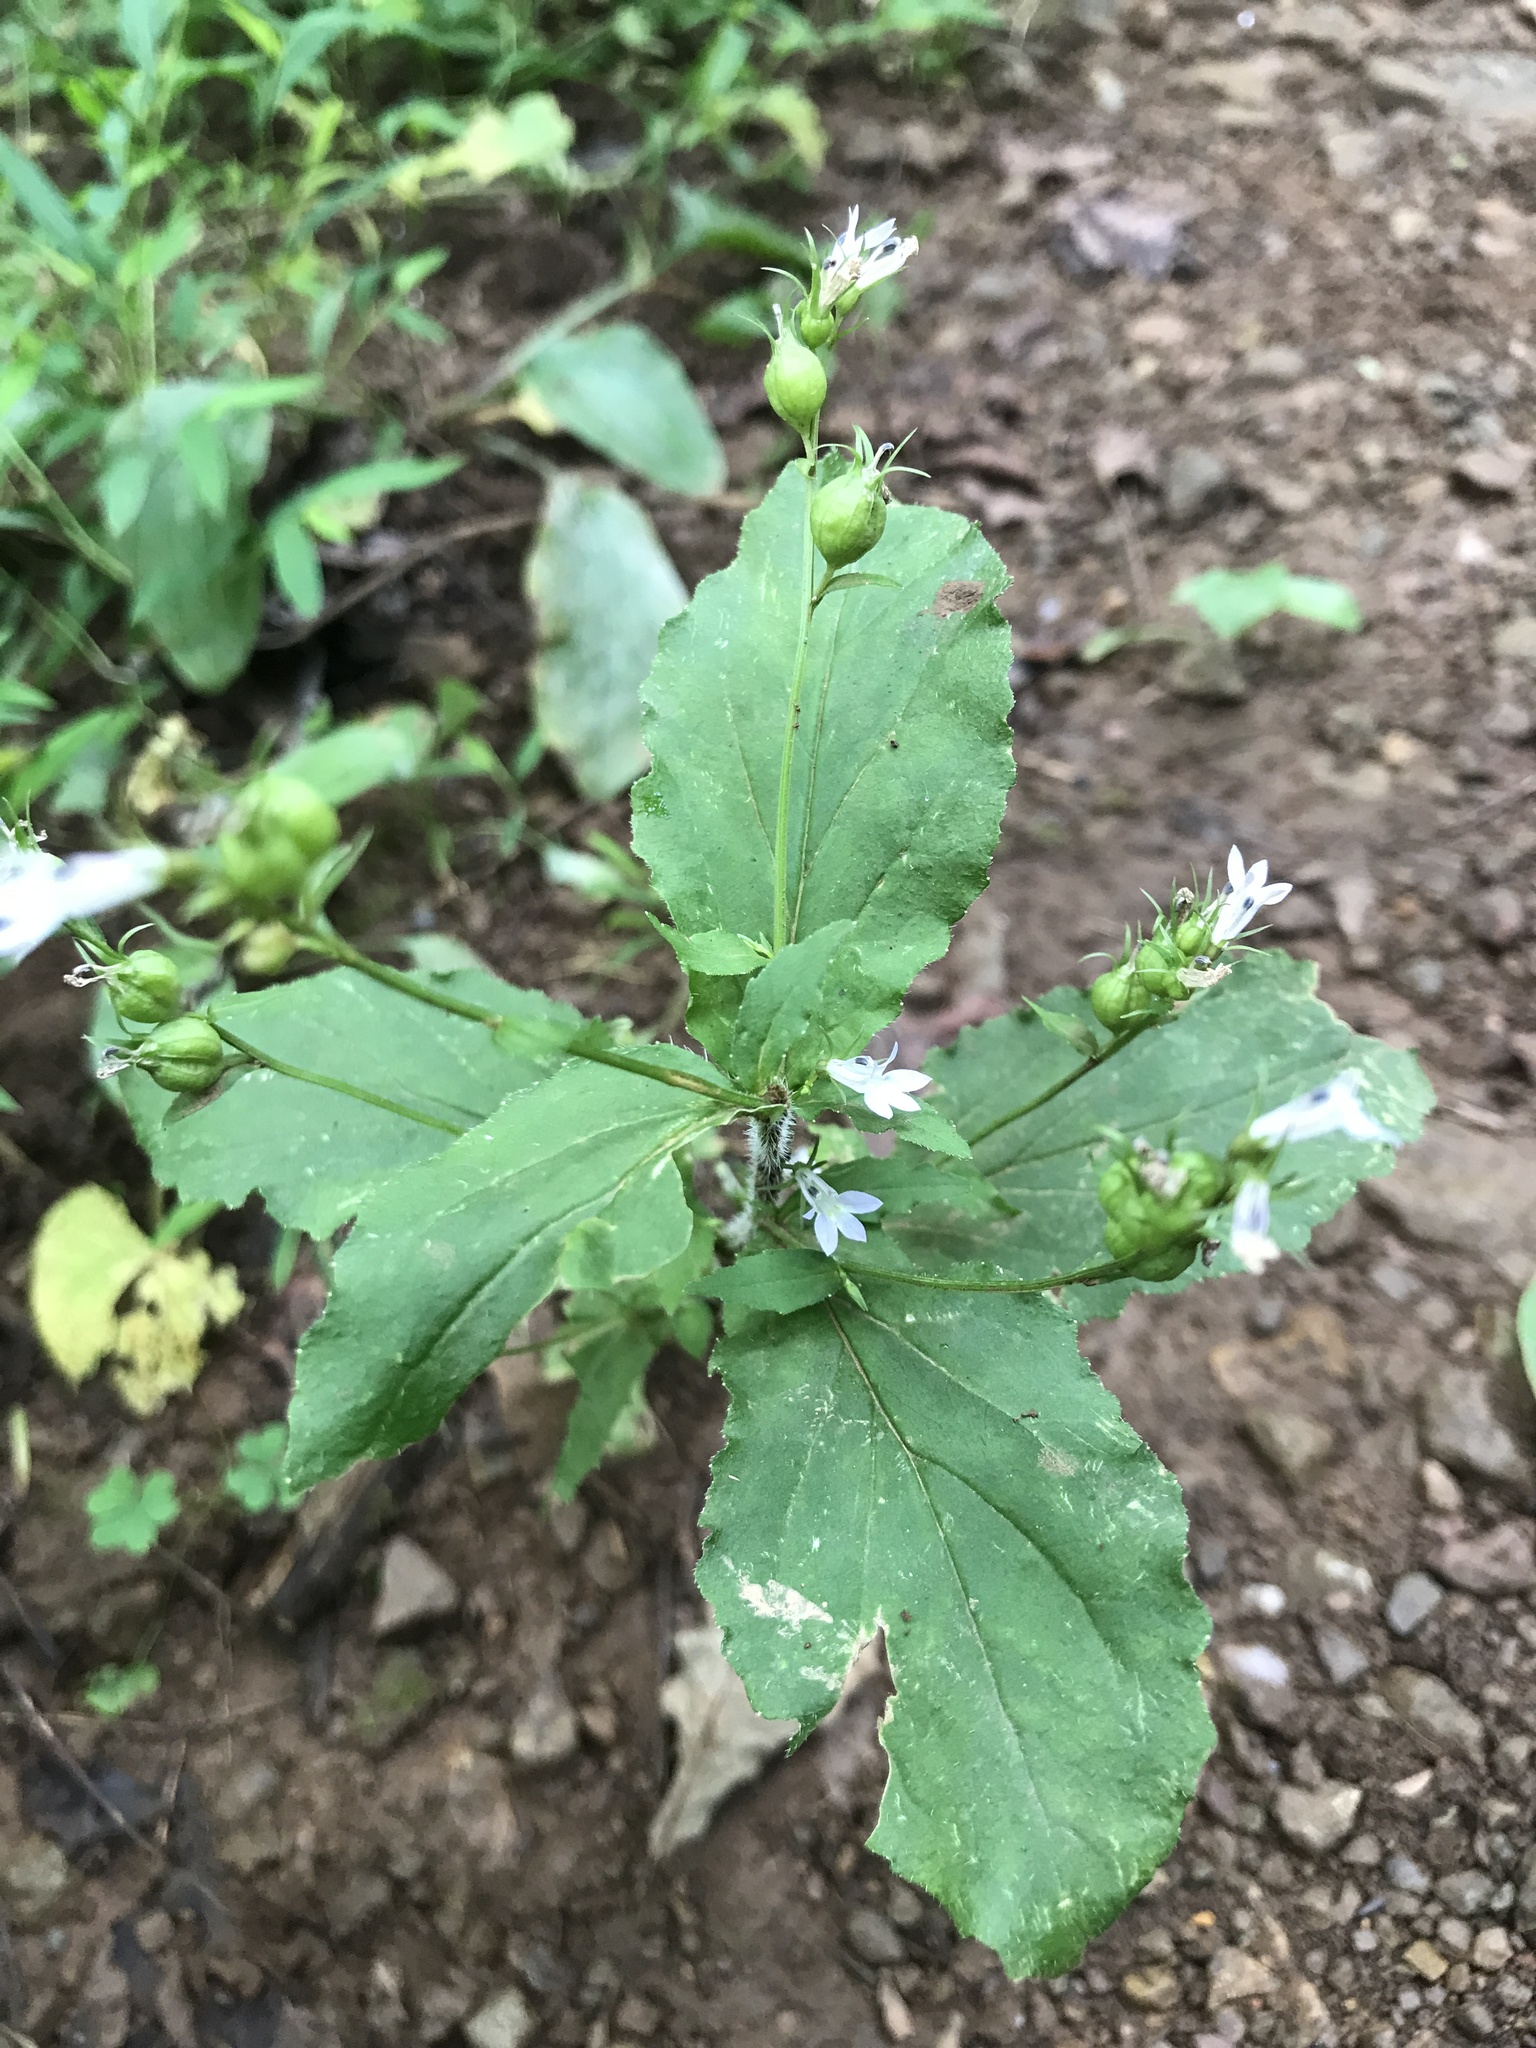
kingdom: Plantae
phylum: Tracheophyta
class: Magnoliopsida
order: Asterales
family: Campanulaceae
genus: Lobelia
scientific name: Lobelia inflata
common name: Indian tobacco
